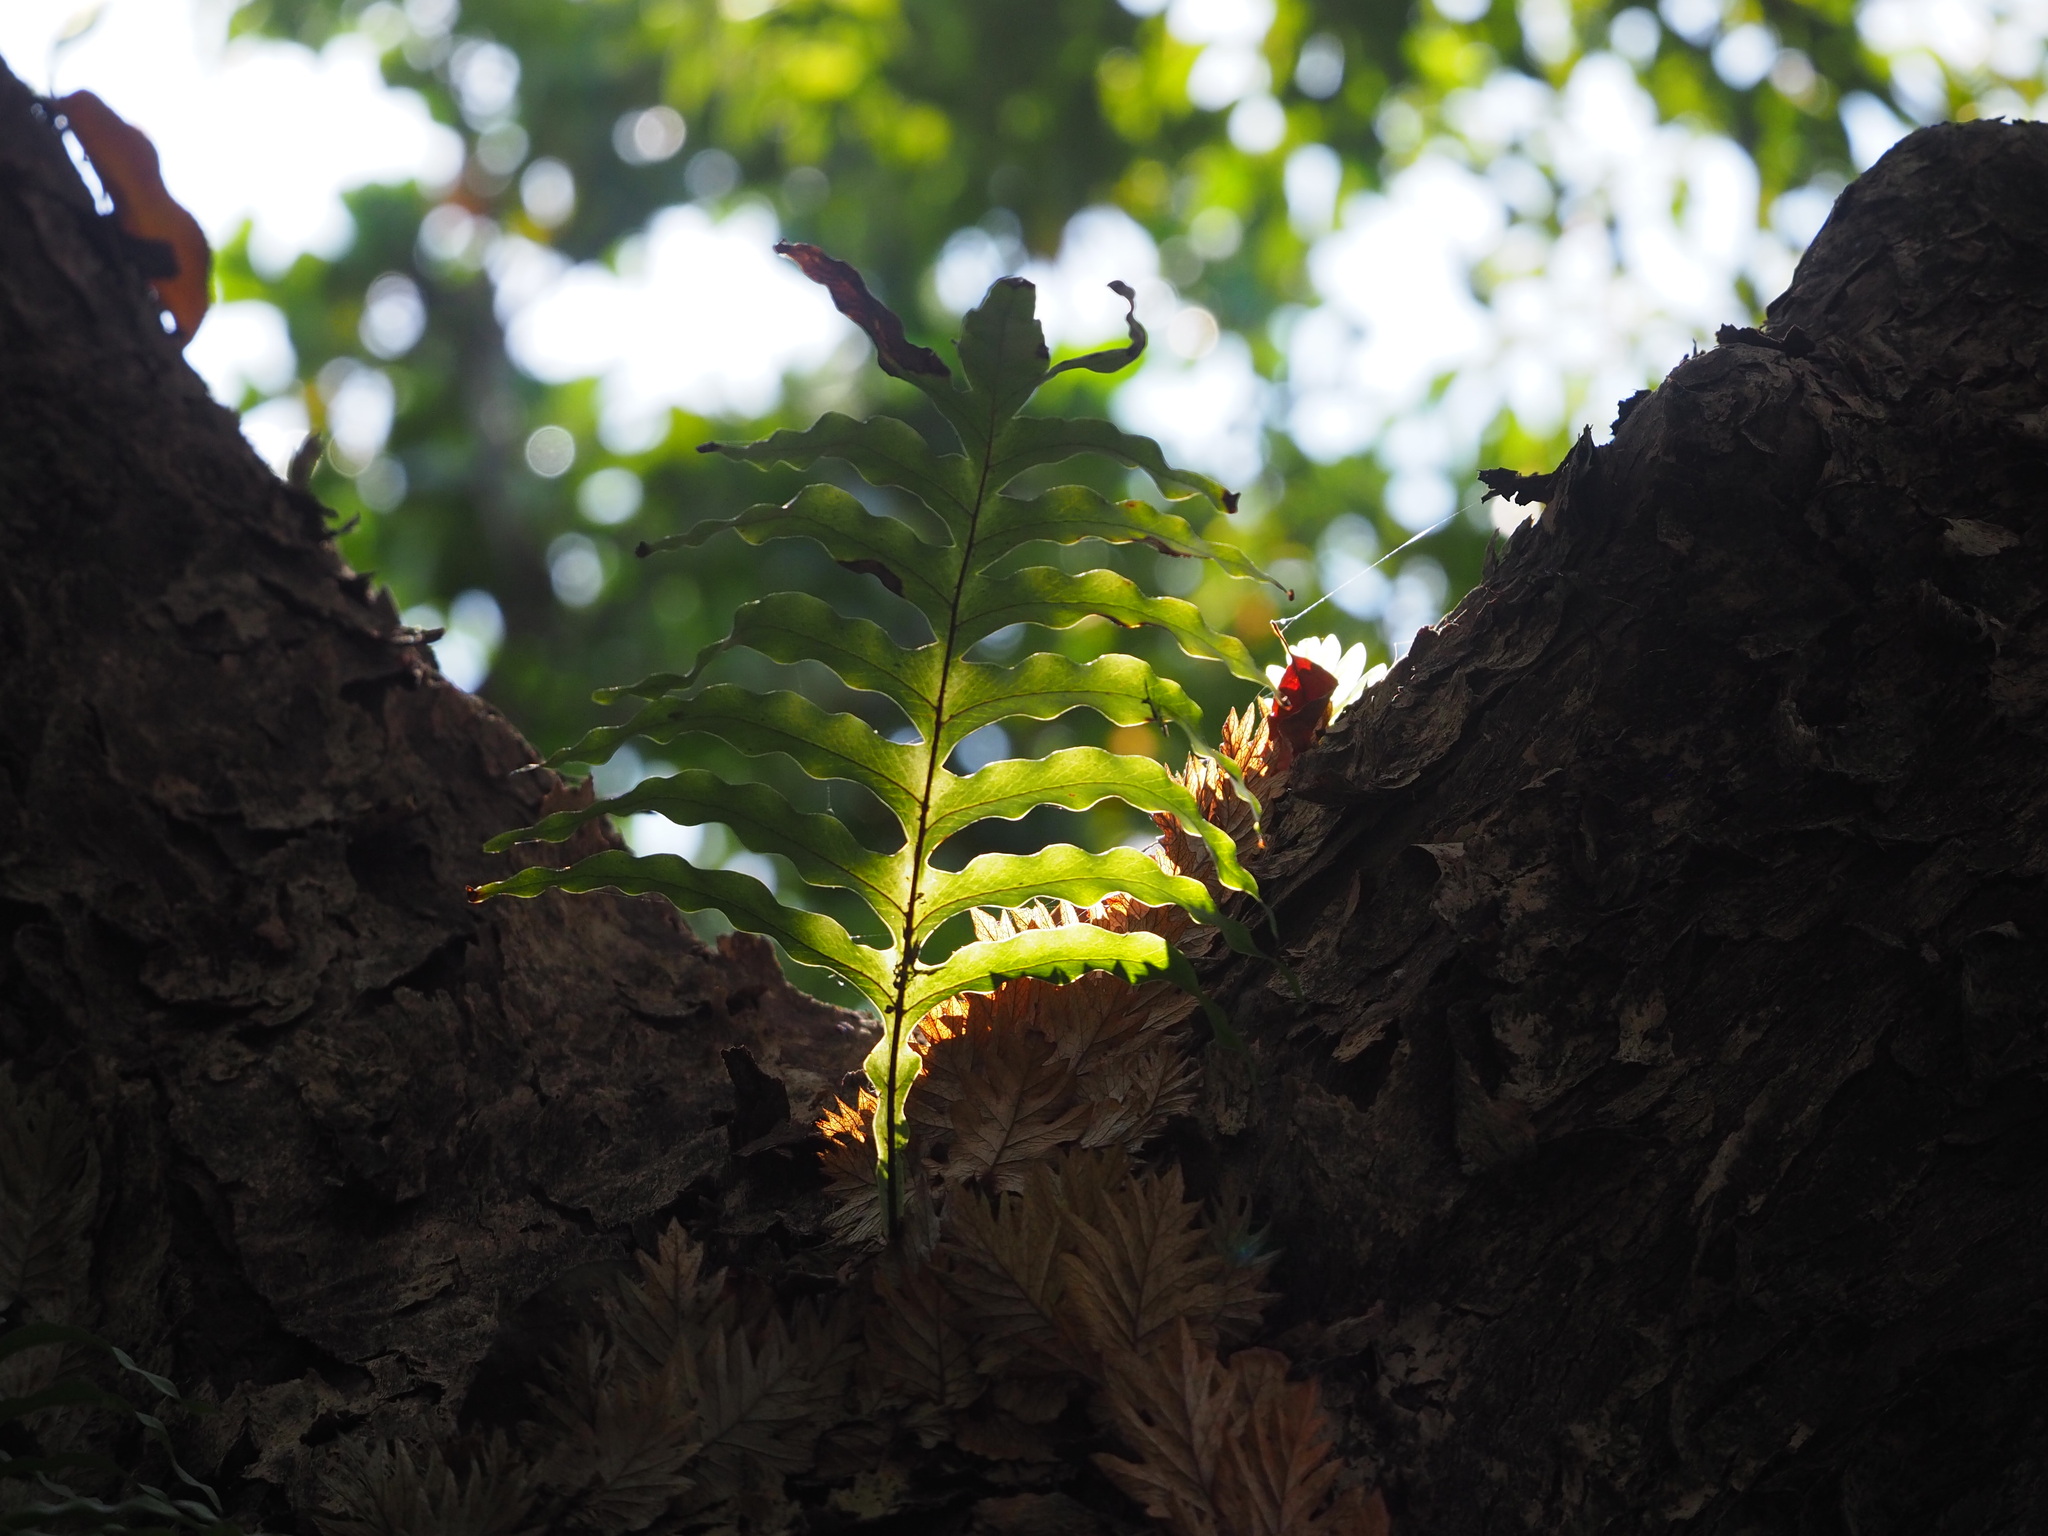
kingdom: Plantae
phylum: Tracheophyta
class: Polypodiopsida
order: Polypodiales
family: Polypodiaceae
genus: Drynaria
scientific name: Drynaria roosii
